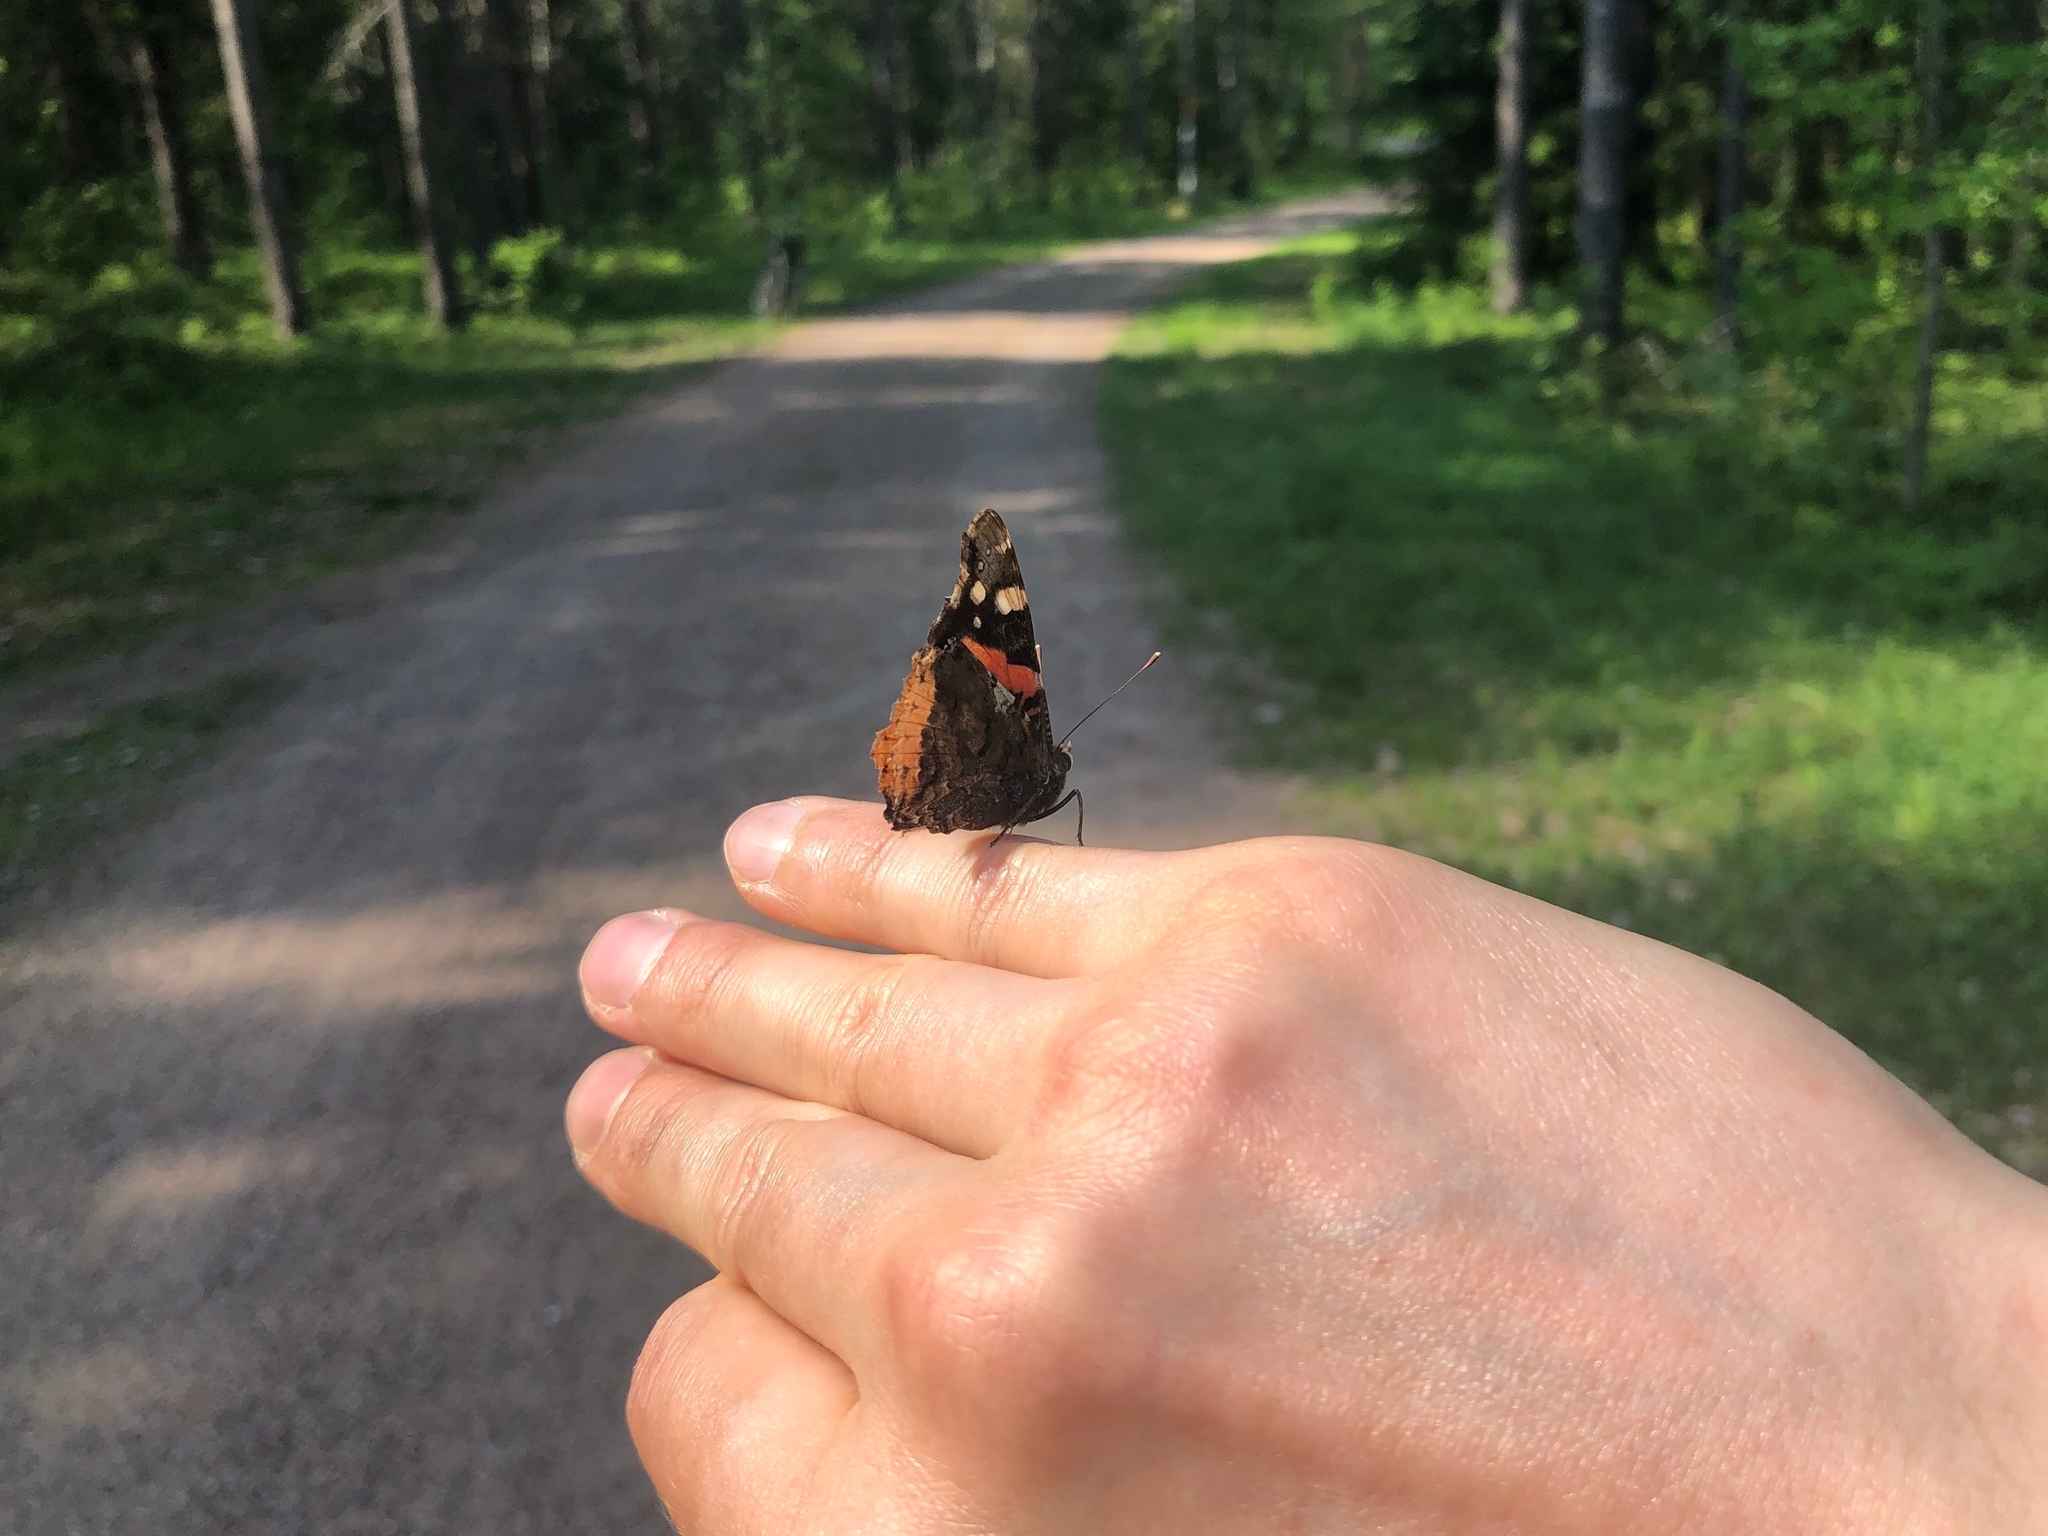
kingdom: Animalia
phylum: Arthropoda
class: Insecta
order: Lepidoptera
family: Nymphalidae
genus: Vanessa
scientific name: Vanessa atalanta
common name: Red admiral
